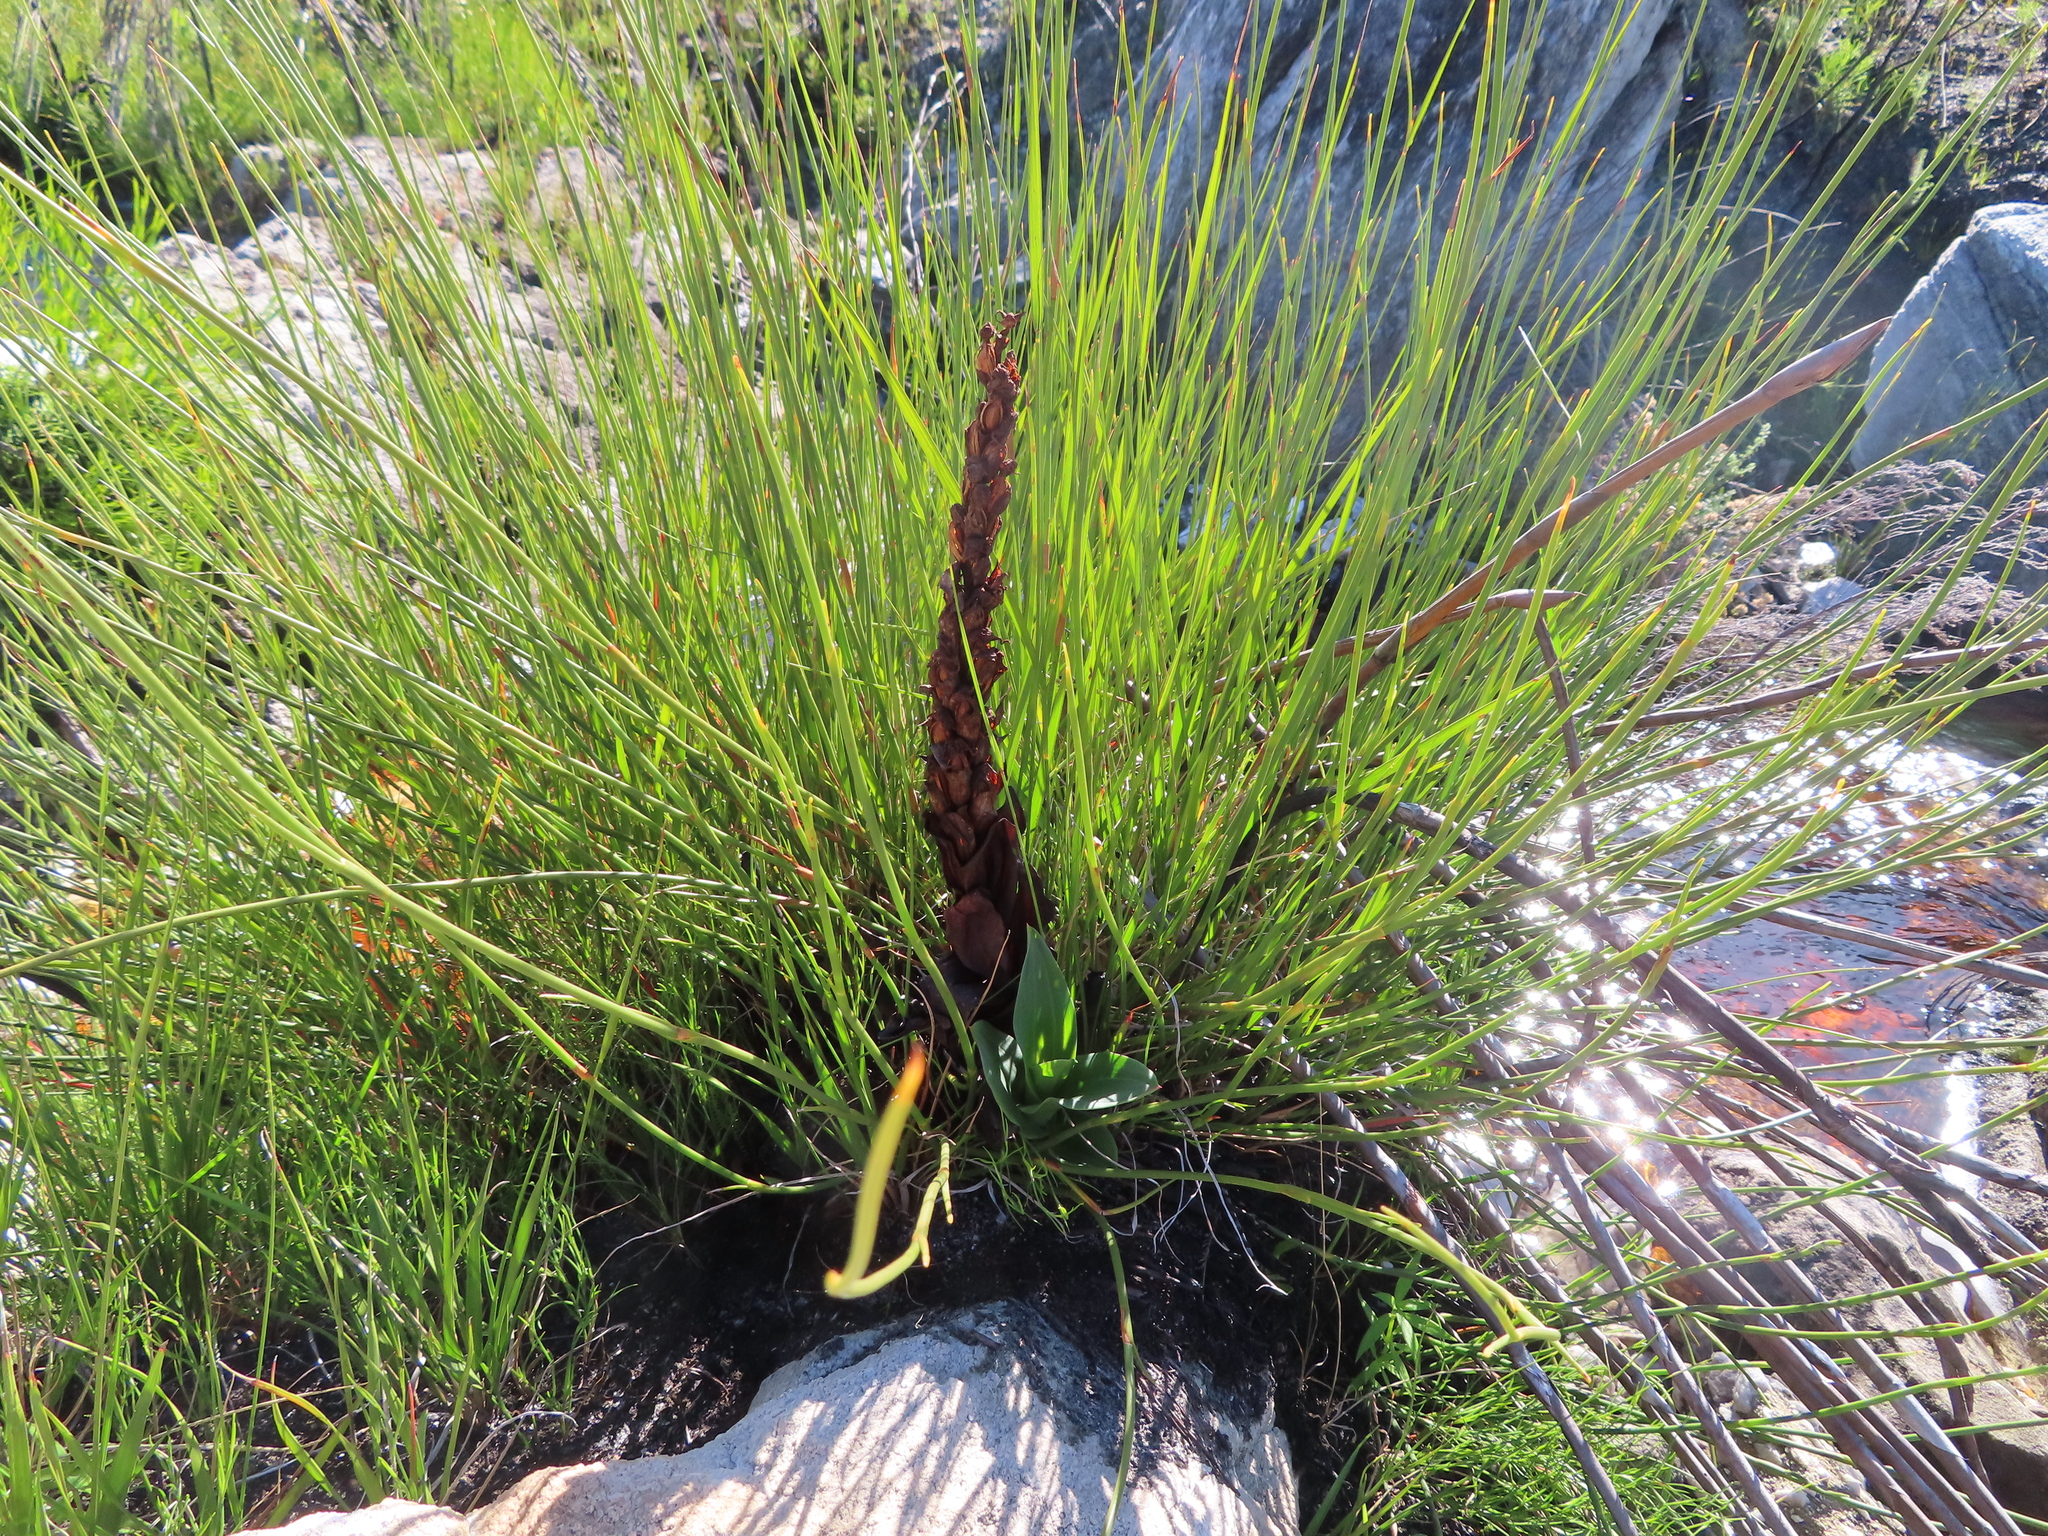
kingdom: Plantae
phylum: Tracheophyta
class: Liliopsida
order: Asparagales
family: Orchidaceae
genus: Disa
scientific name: Disa cornuta
